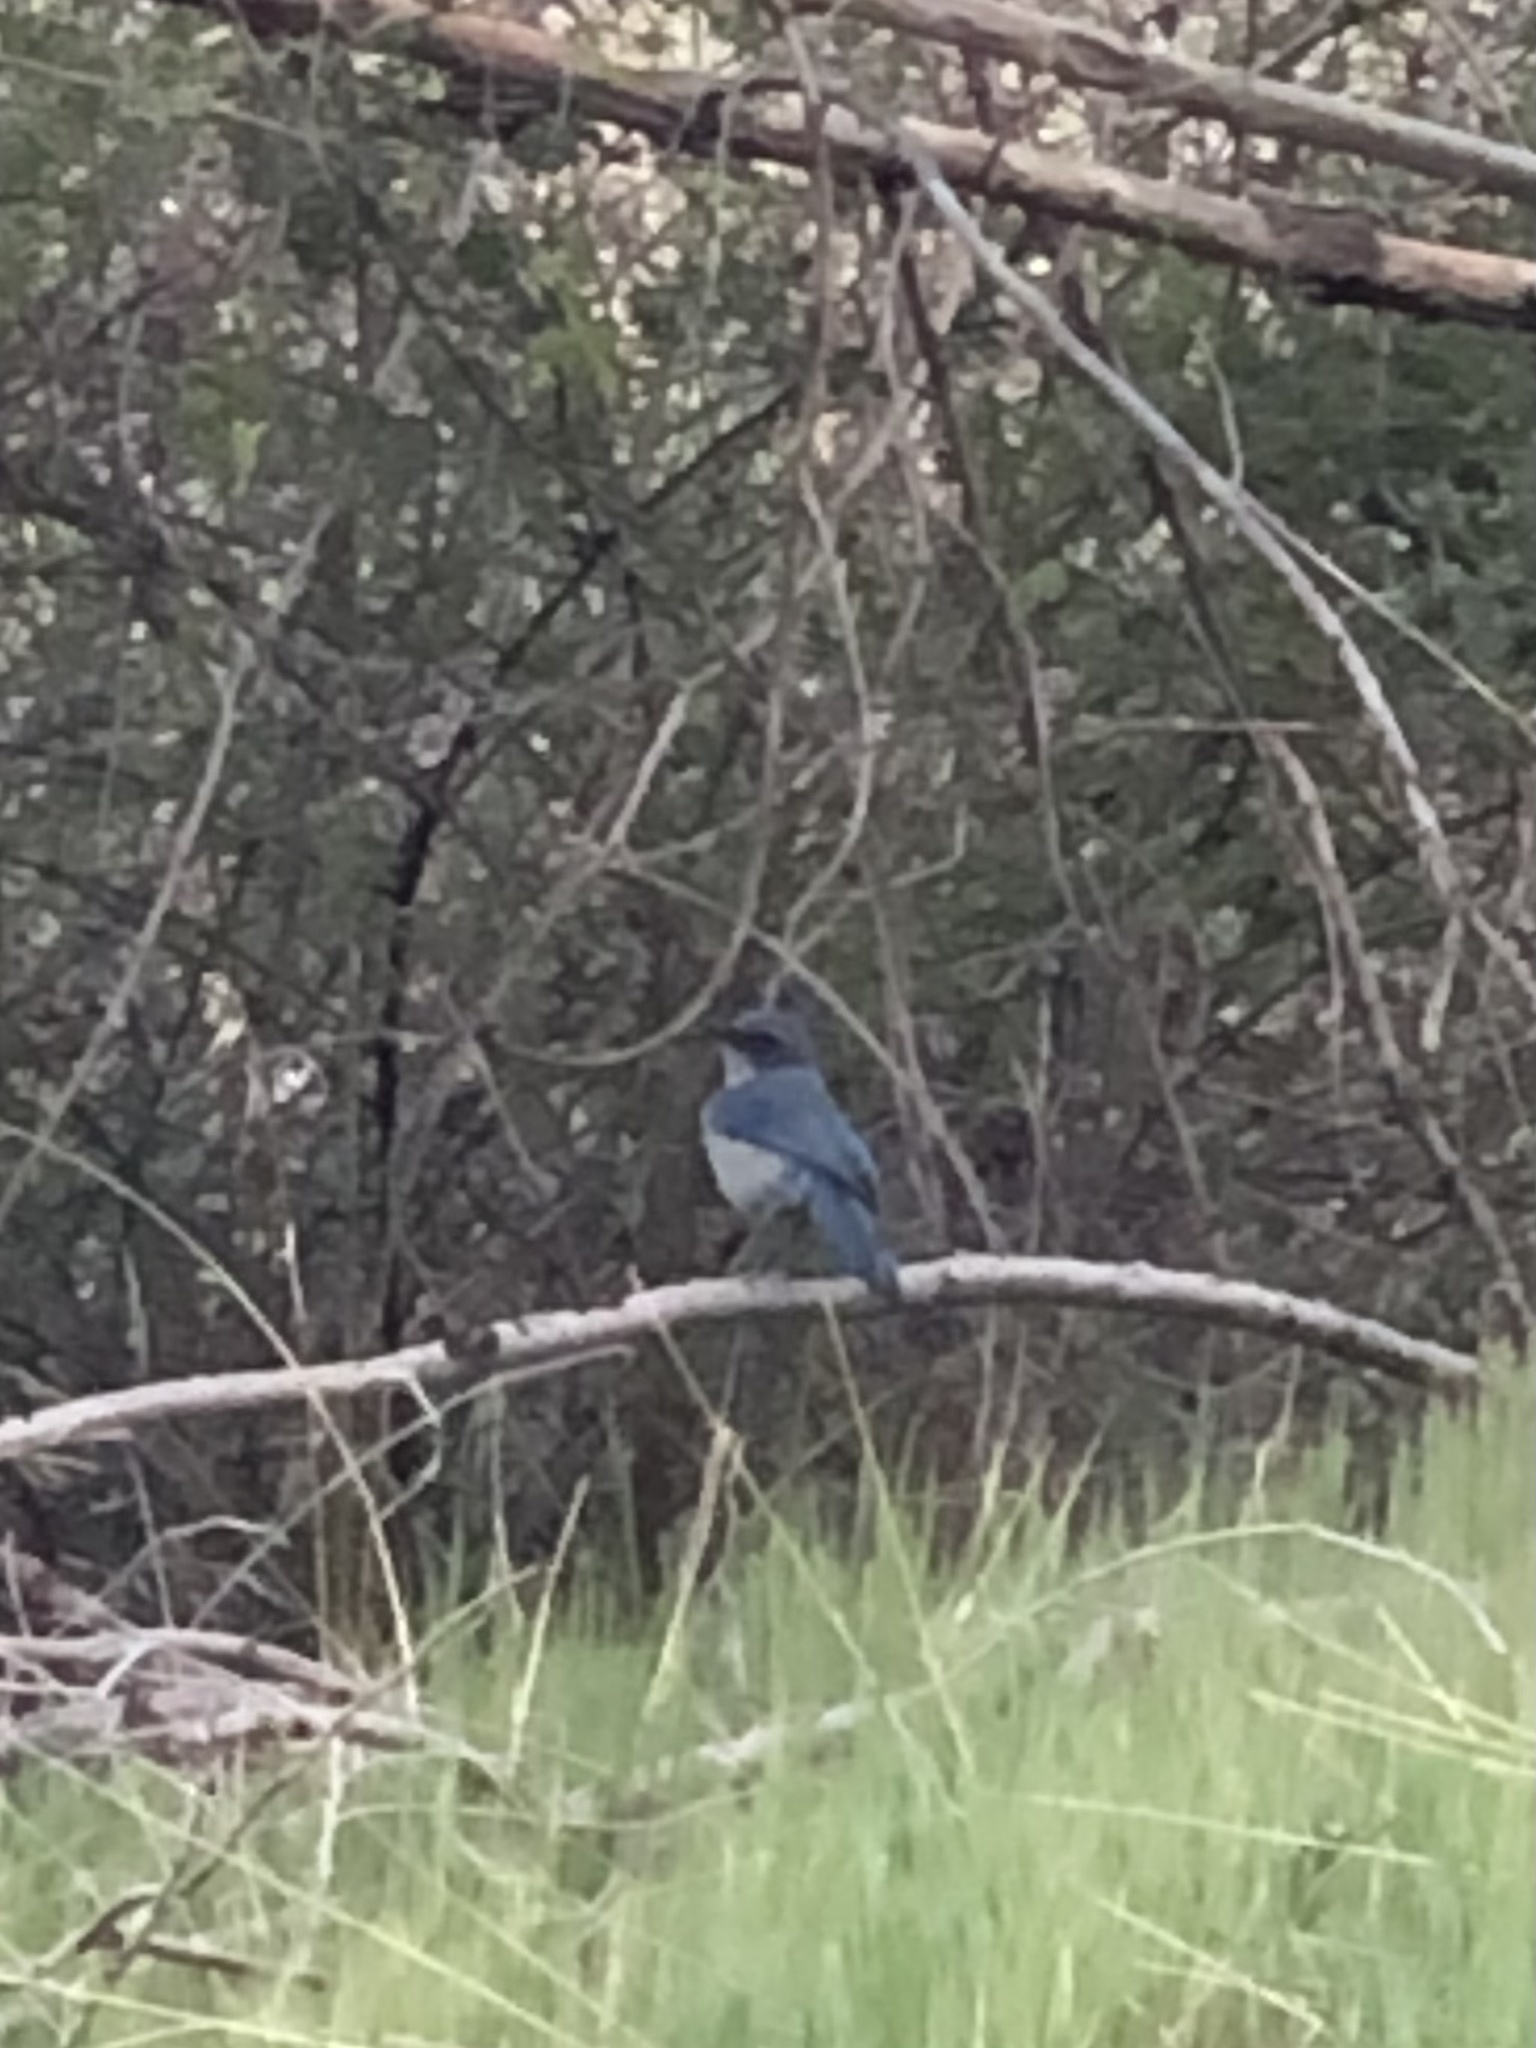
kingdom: Animalia
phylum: Chordata
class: Aves
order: Passeriformes
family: Corvidae
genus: Aphelocoma
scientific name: Aphelocoma woodhouseii
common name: Woodhouse's scrub-jay
